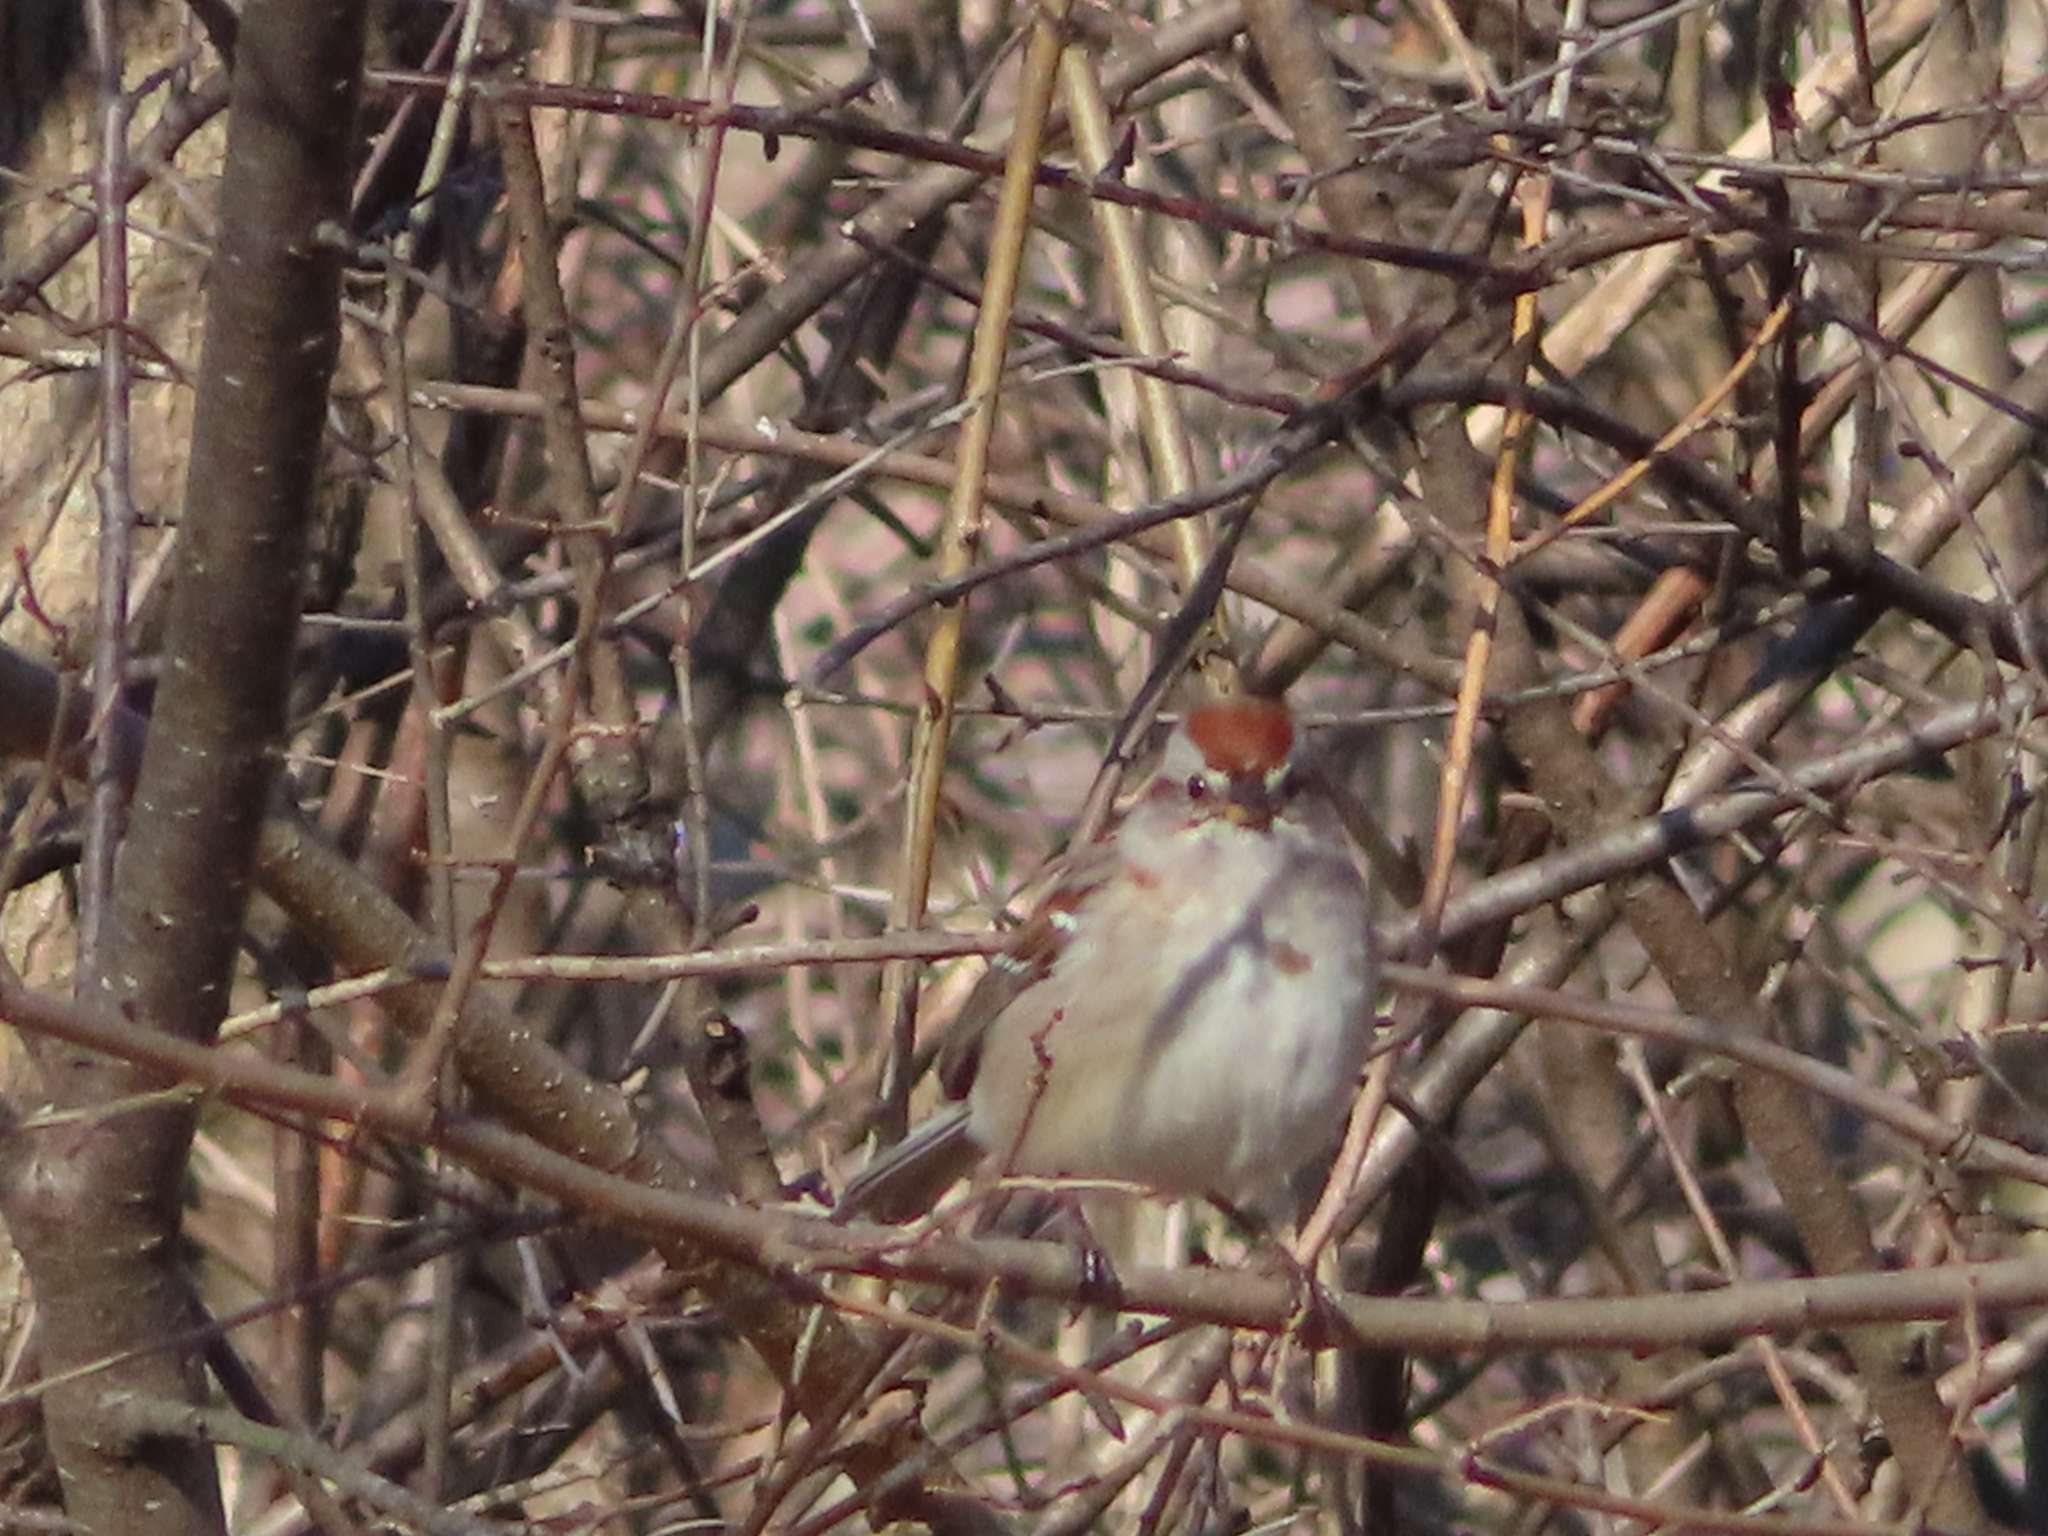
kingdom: Animalia
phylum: Chordata
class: Aves
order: Passeriformes
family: Passerellidae
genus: Spizelloides
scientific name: Spizelloides arborea
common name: American tree sparrow
